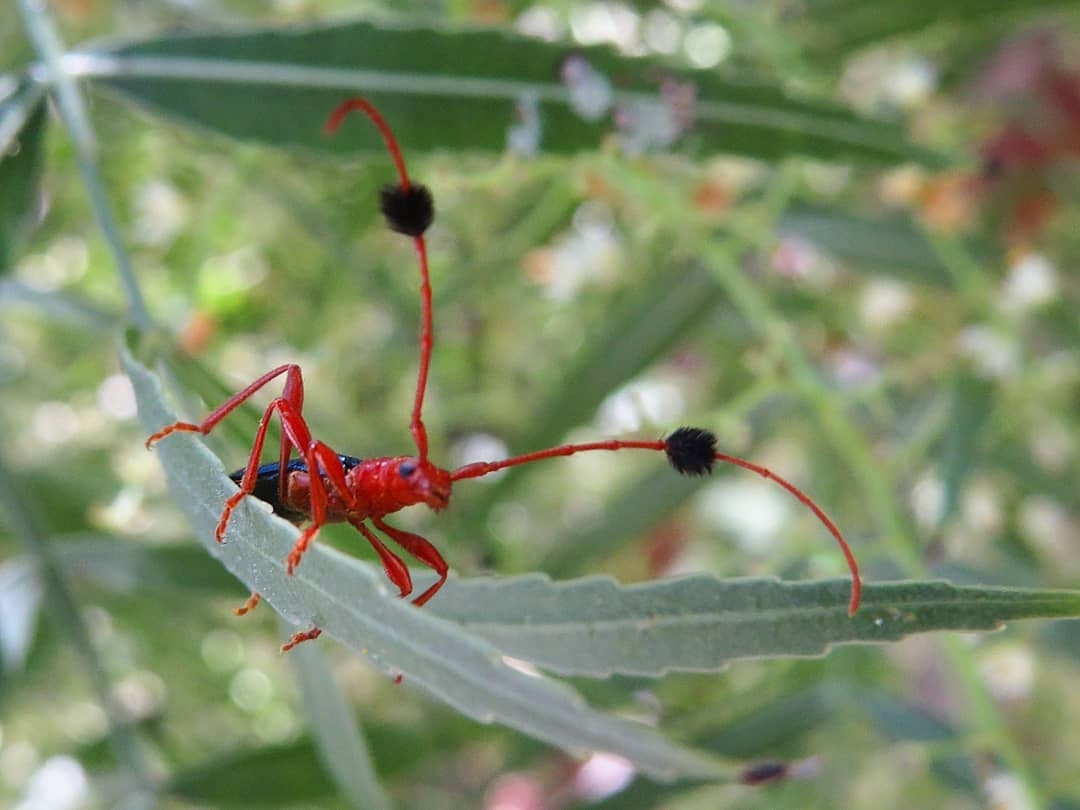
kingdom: Animalia
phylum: Arthropoda
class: Insecta
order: Coleoptera
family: Cerambycidae
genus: Paromoeocerus
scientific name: Paromoeocerus barbicornis
